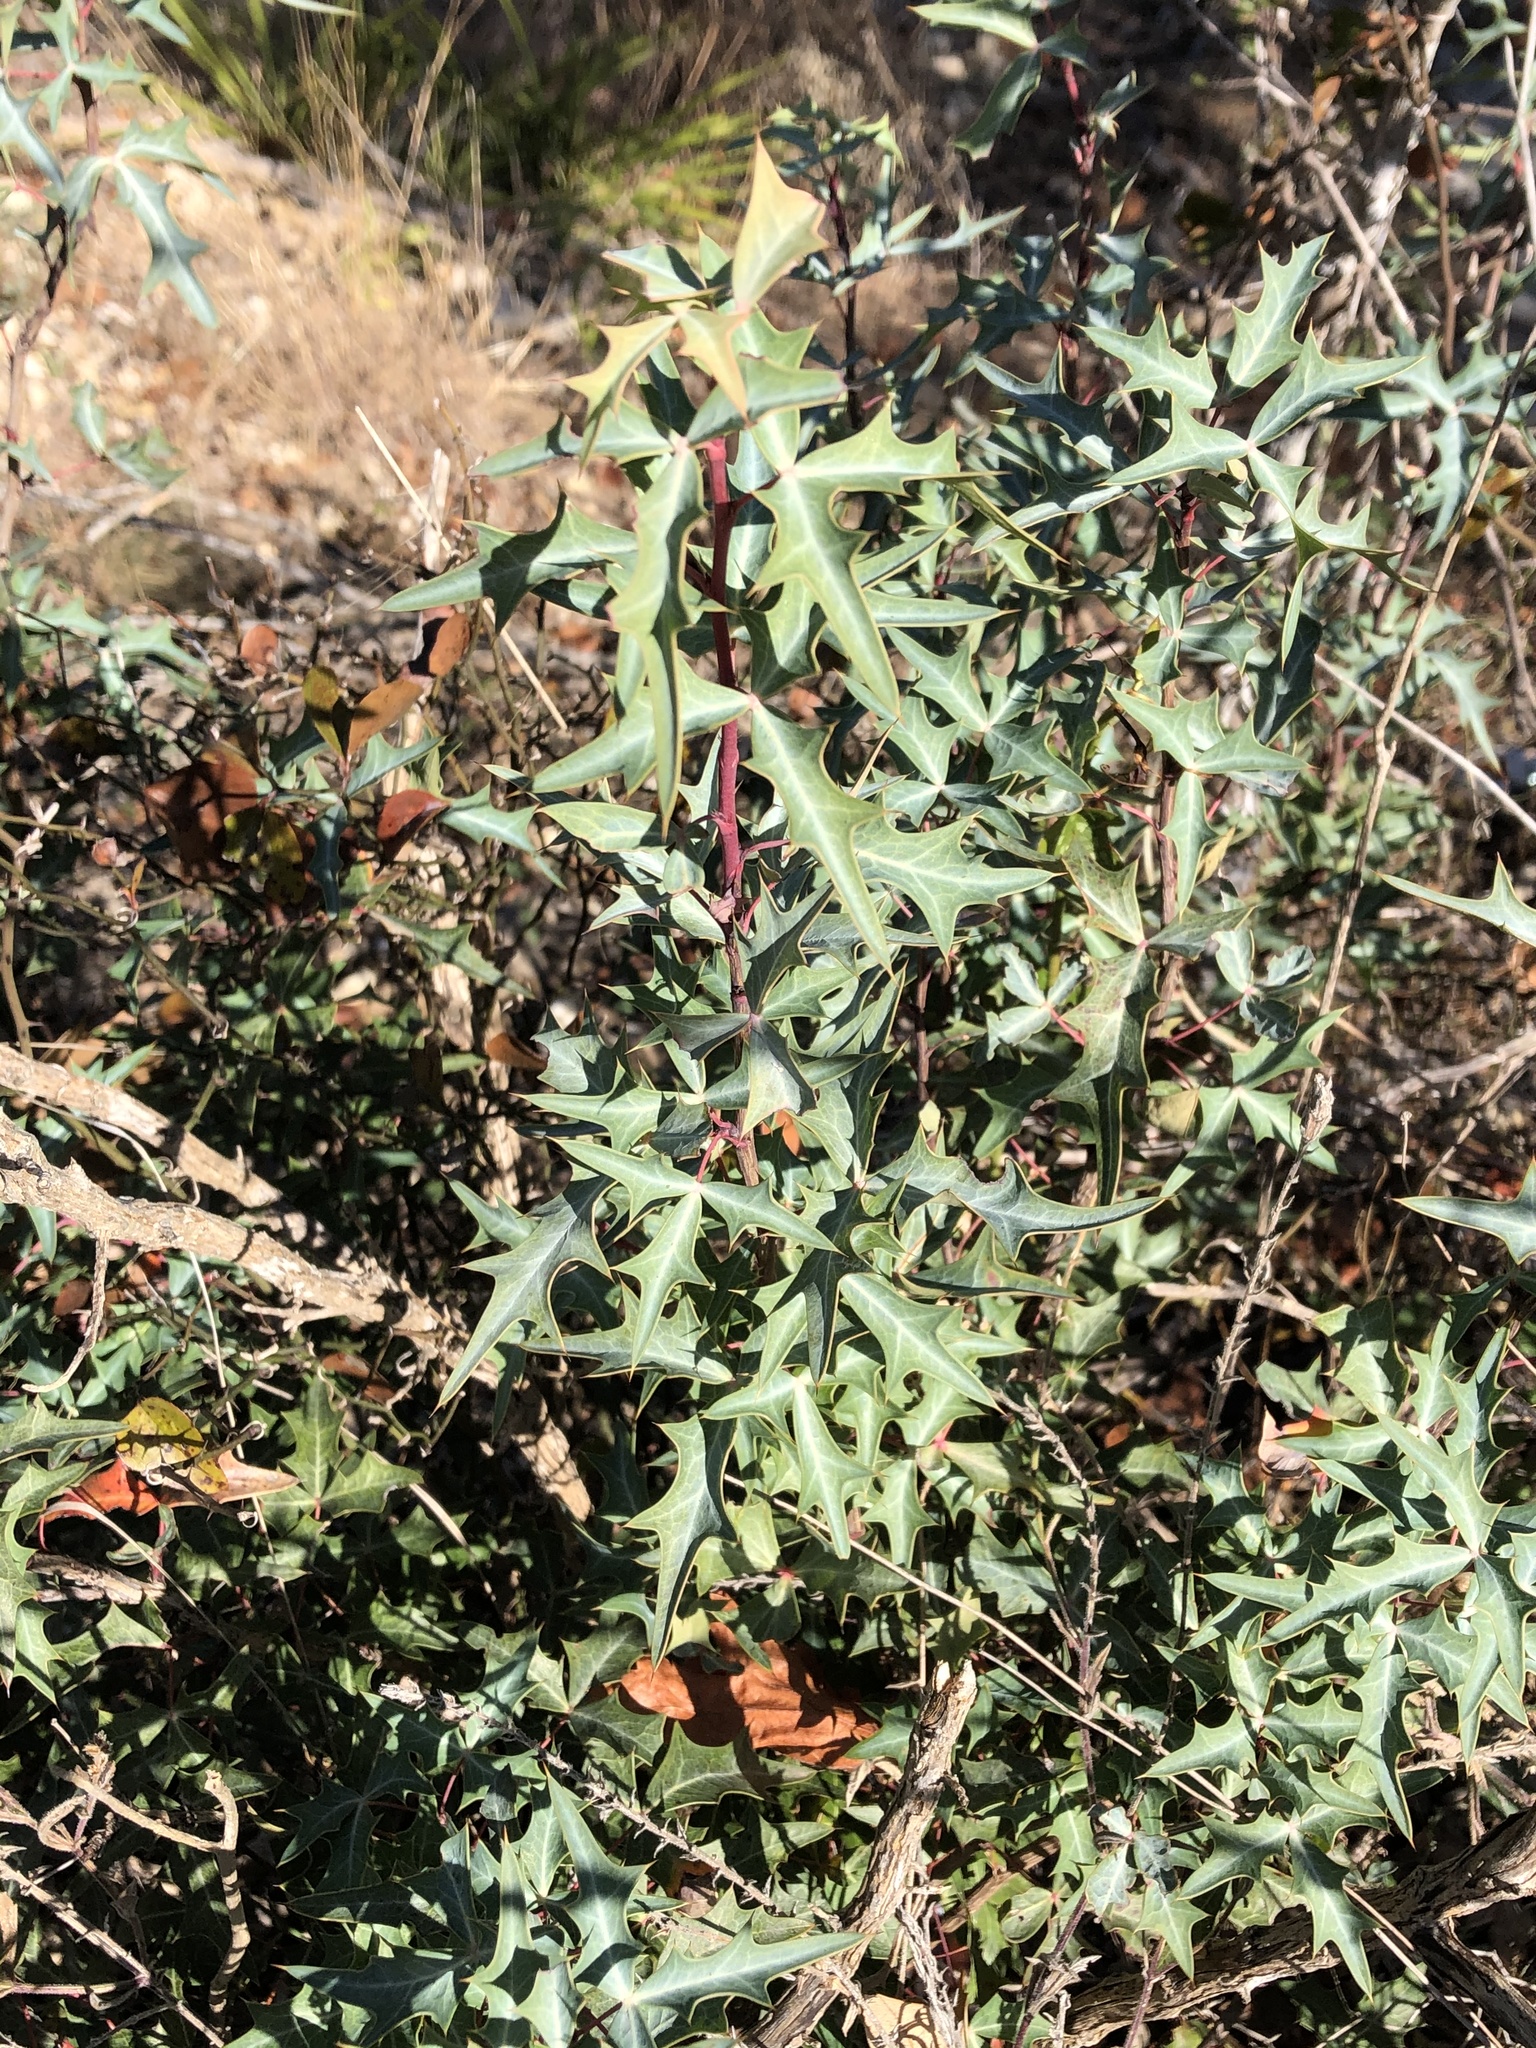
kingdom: Plantae
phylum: Tracheophyta
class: Magnoliopsida
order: Ranunculales
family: Berberidaceae
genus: Alloberberis
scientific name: Alloberberis trifoliolata
